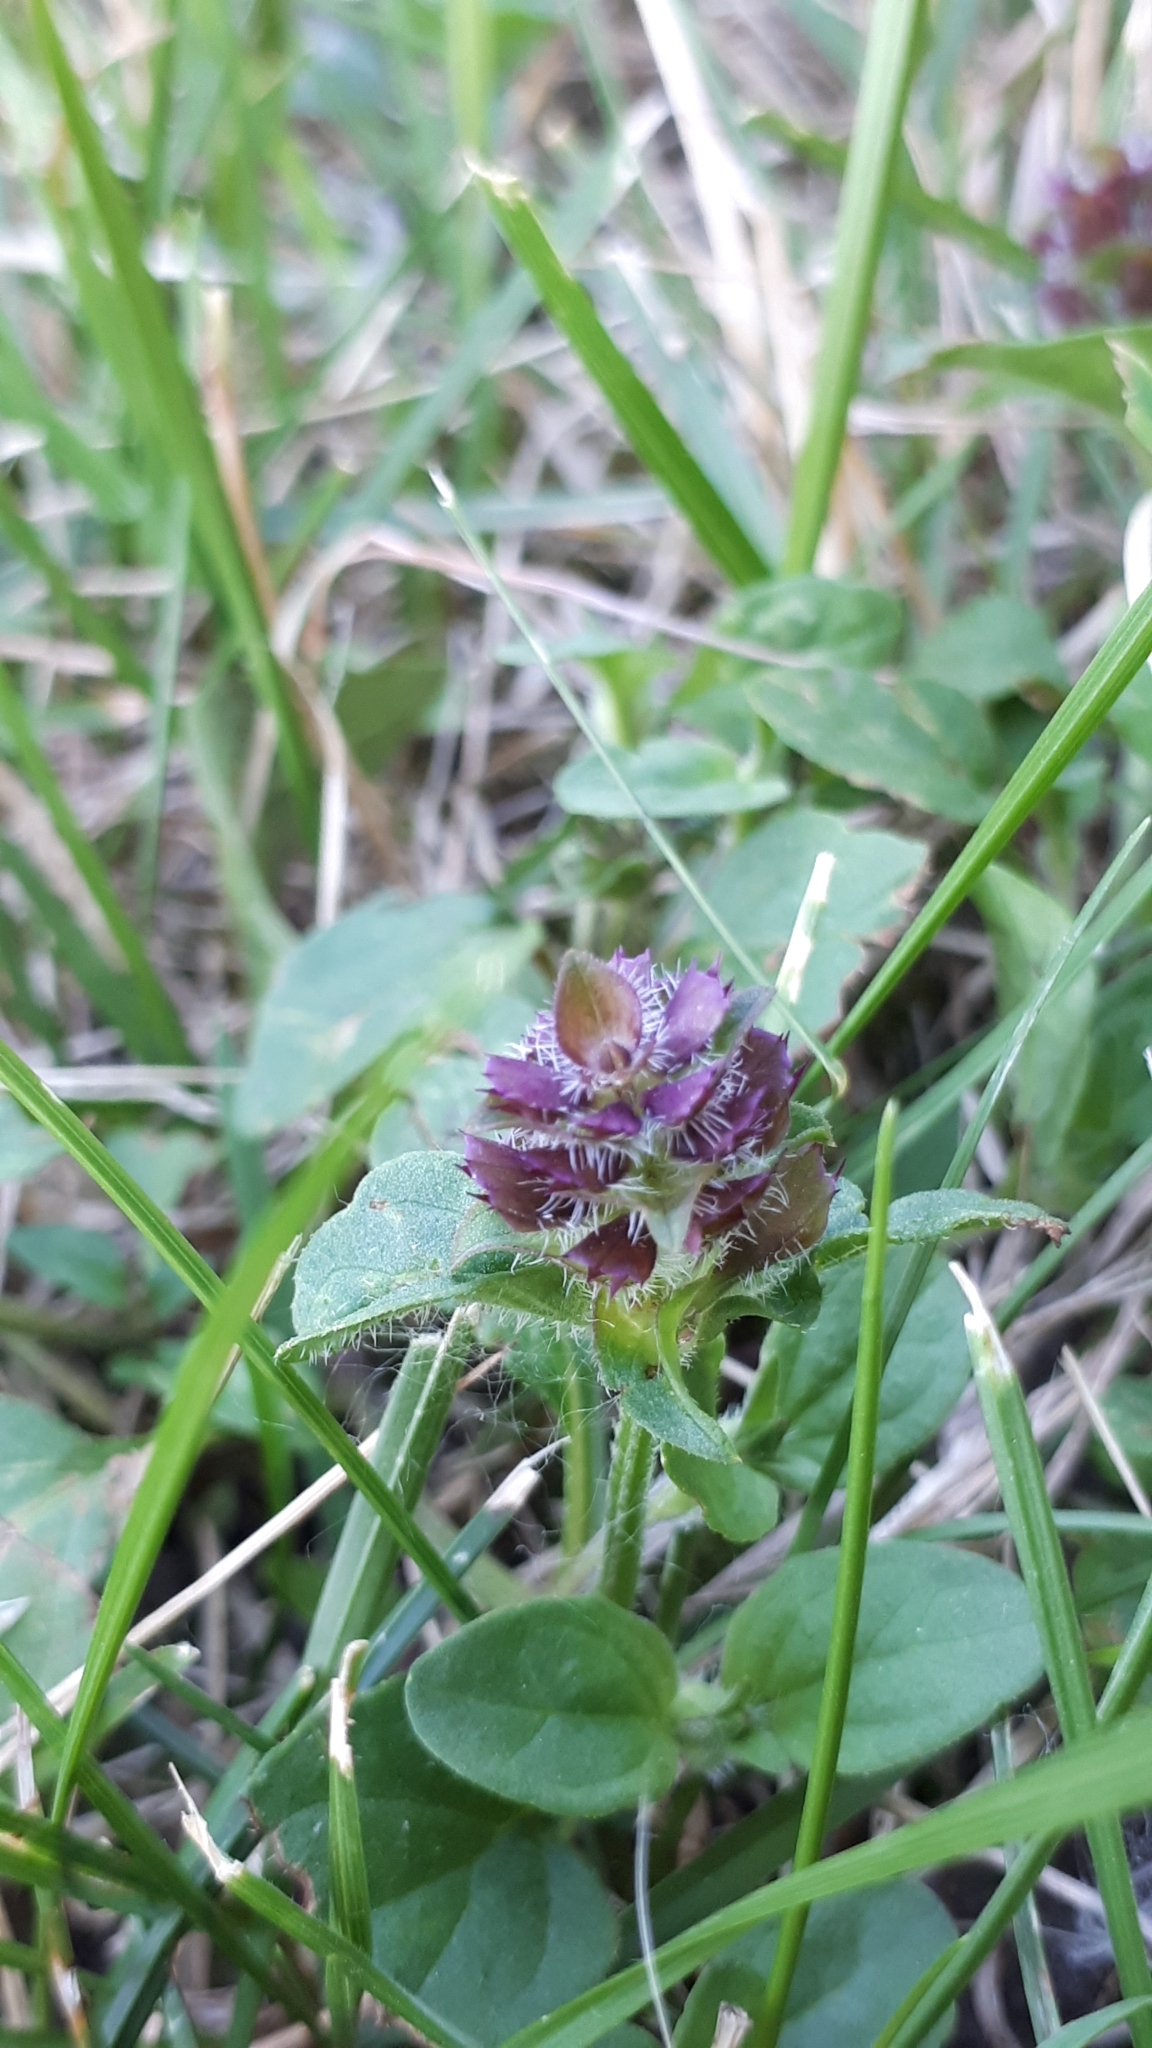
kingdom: Plantae
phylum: Tracheophyta
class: Magnoliopsida
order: Lamiales
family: Lamiaceae
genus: Prunella
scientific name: Prunella vulgaris
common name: Heal-all
